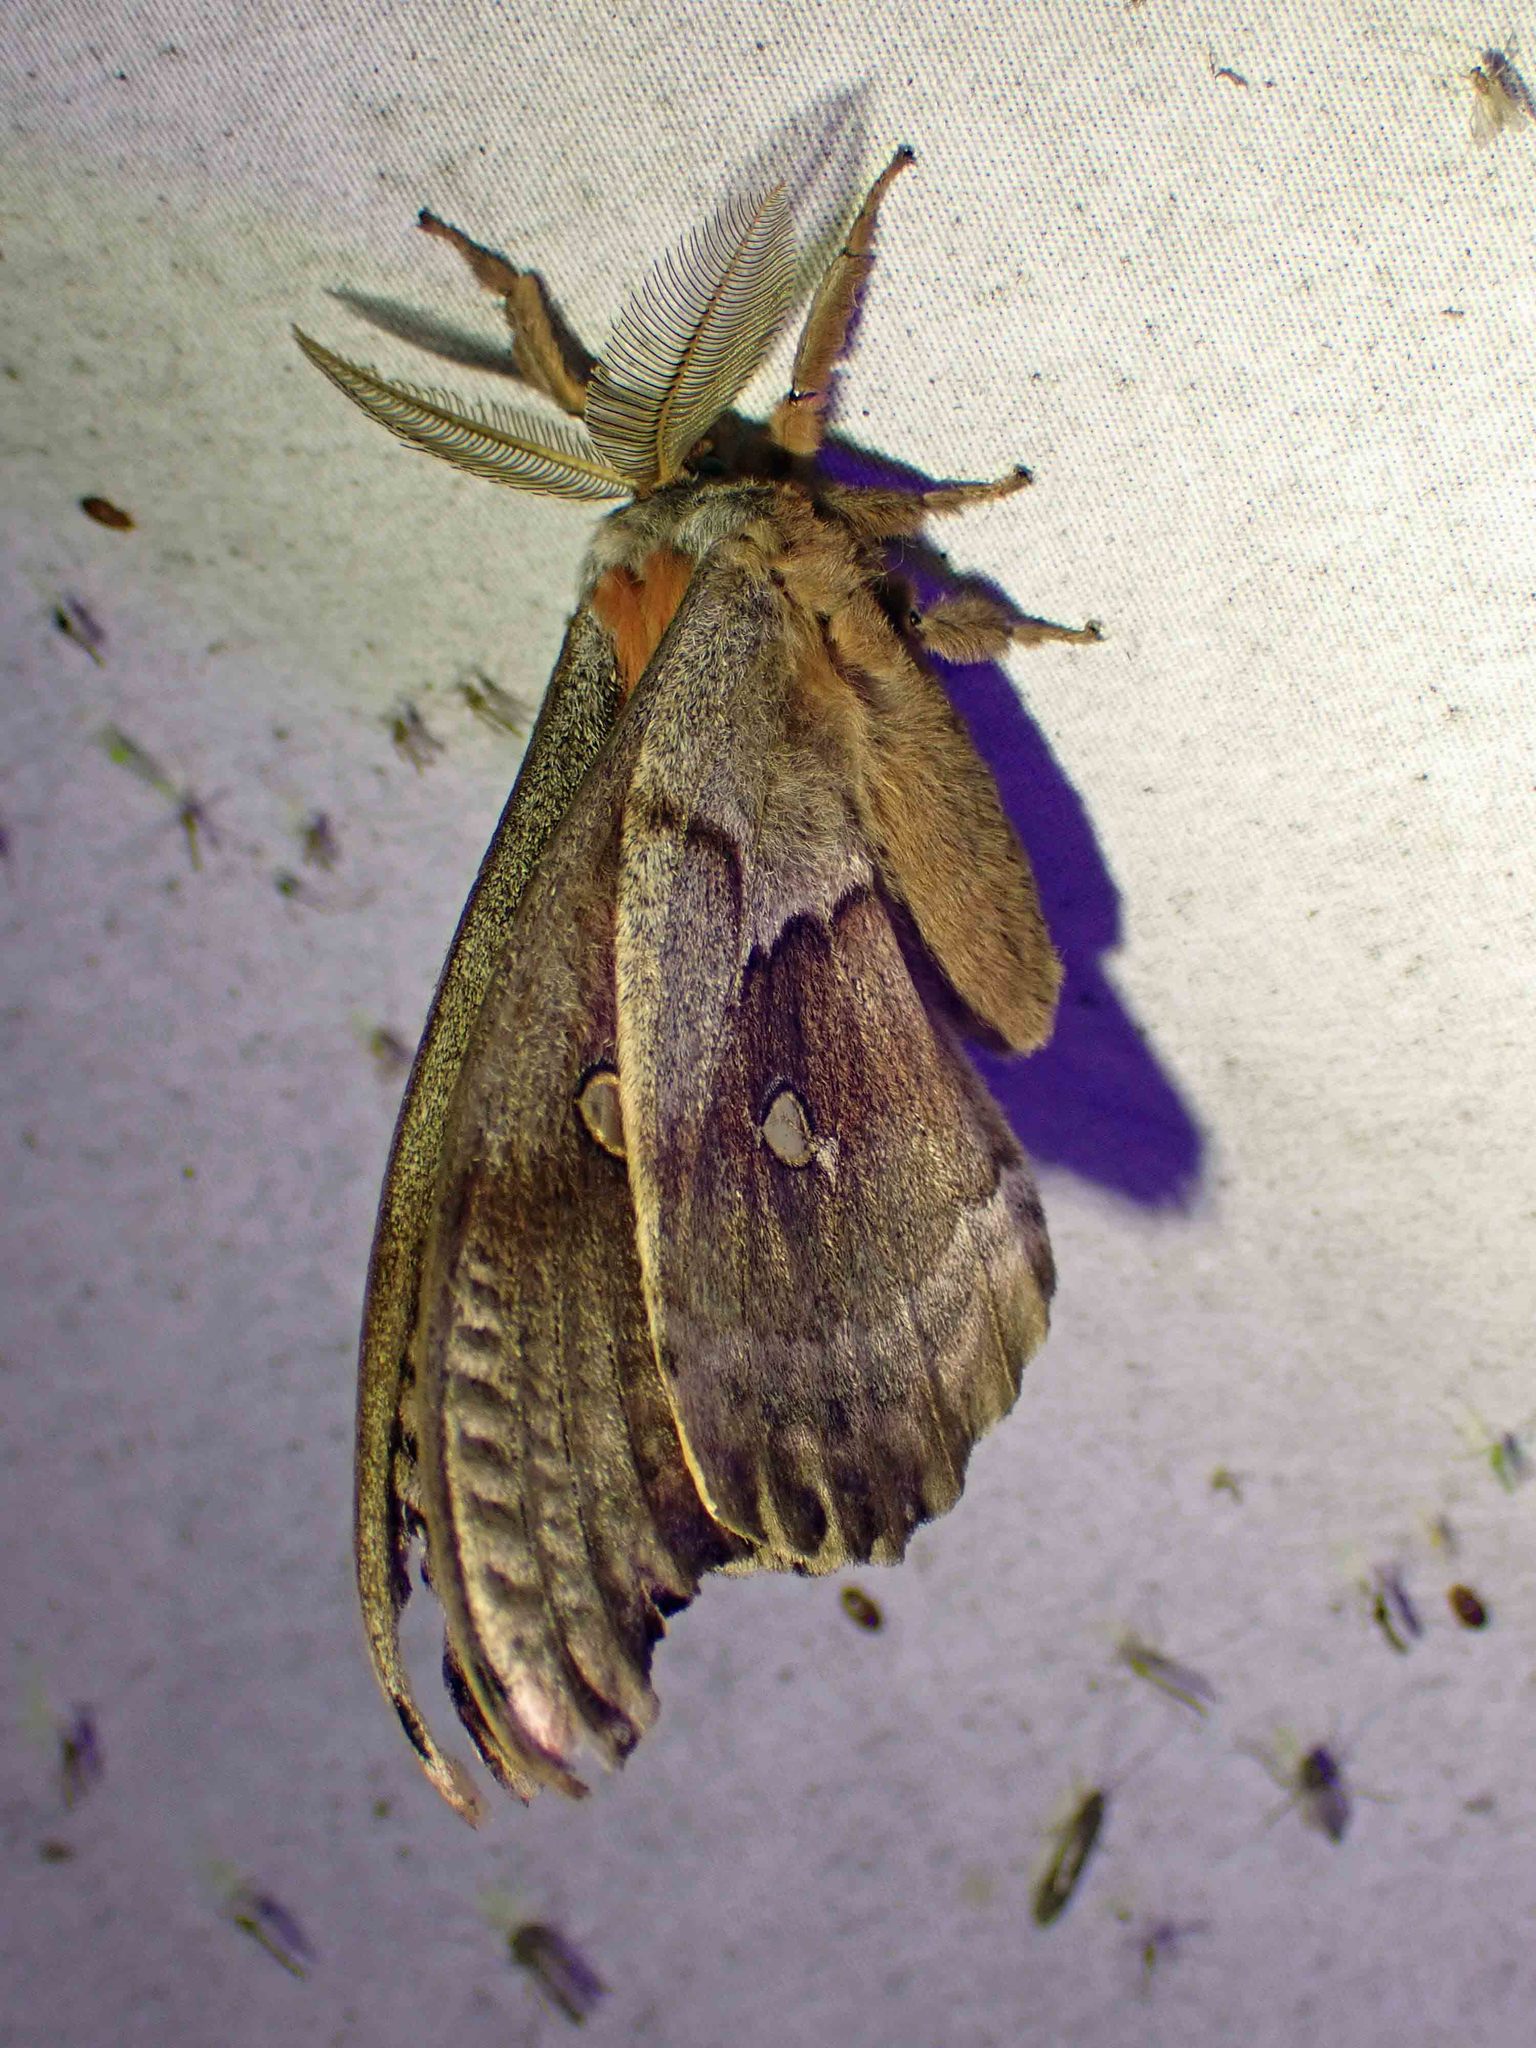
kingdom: Animalia
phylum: Arthropoda
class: Insecta
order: Lepidoptera
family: Saturniidae
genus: Antheraea
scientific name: Antheraea polyphemus
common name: Polyphemus moth
